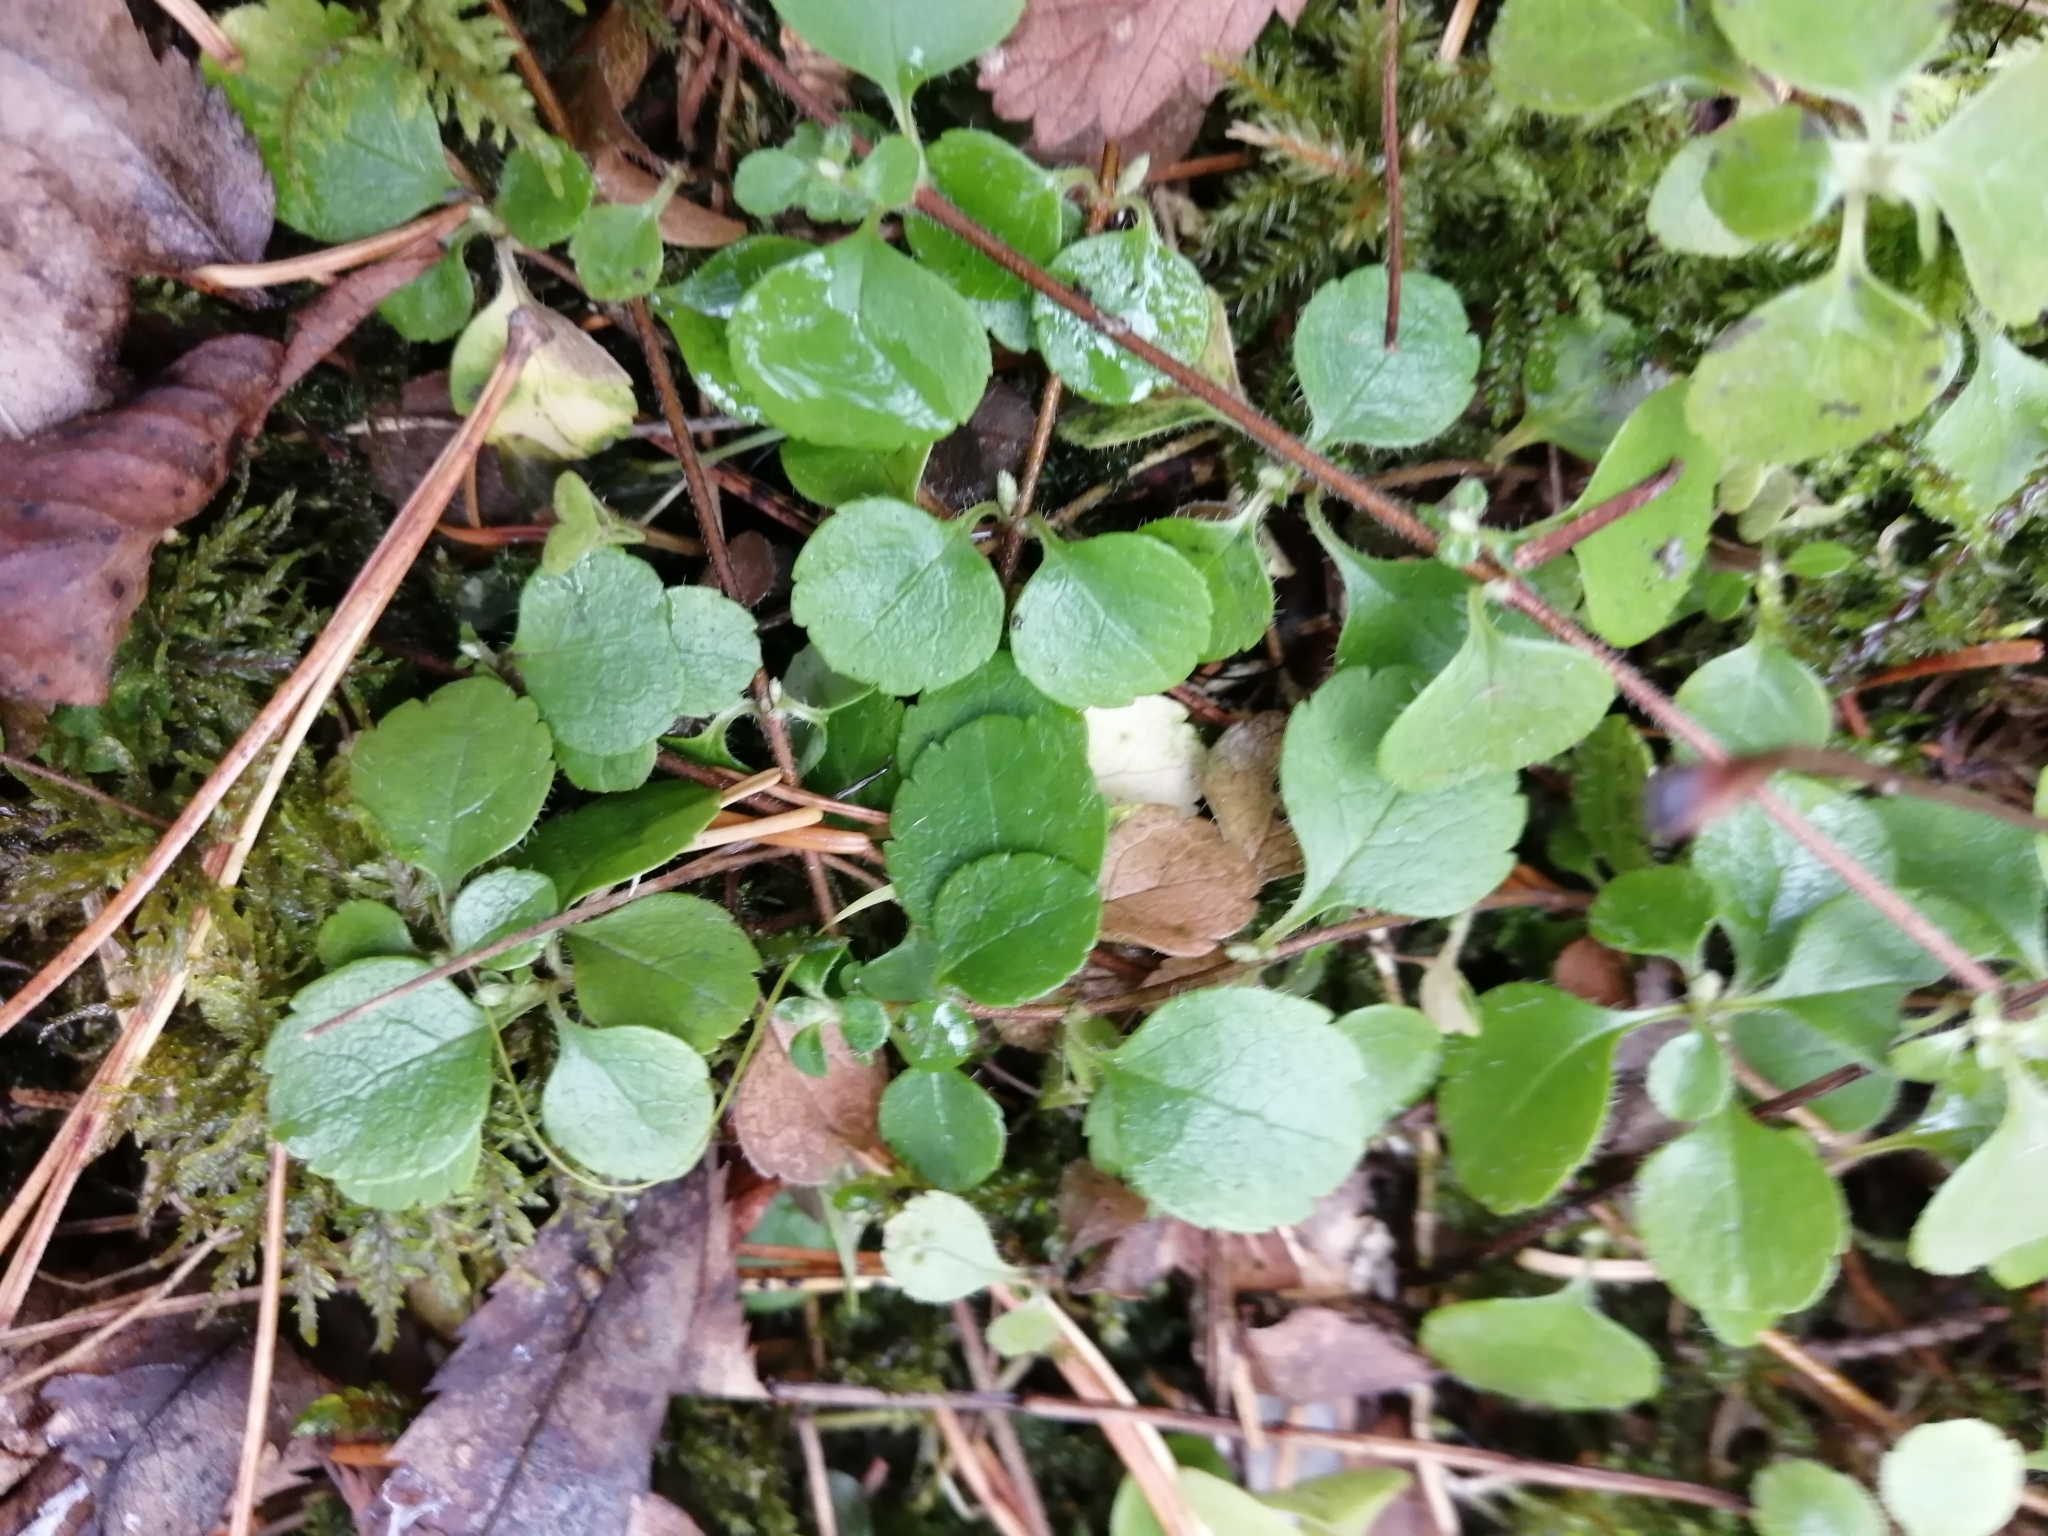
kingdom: Plantae
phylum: Tracheophyta
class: Magnoliopsida
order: Dipsacales
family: Caprifoliaceae
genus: Linnaea
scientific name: Linnaea borealis
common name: Twinflower
